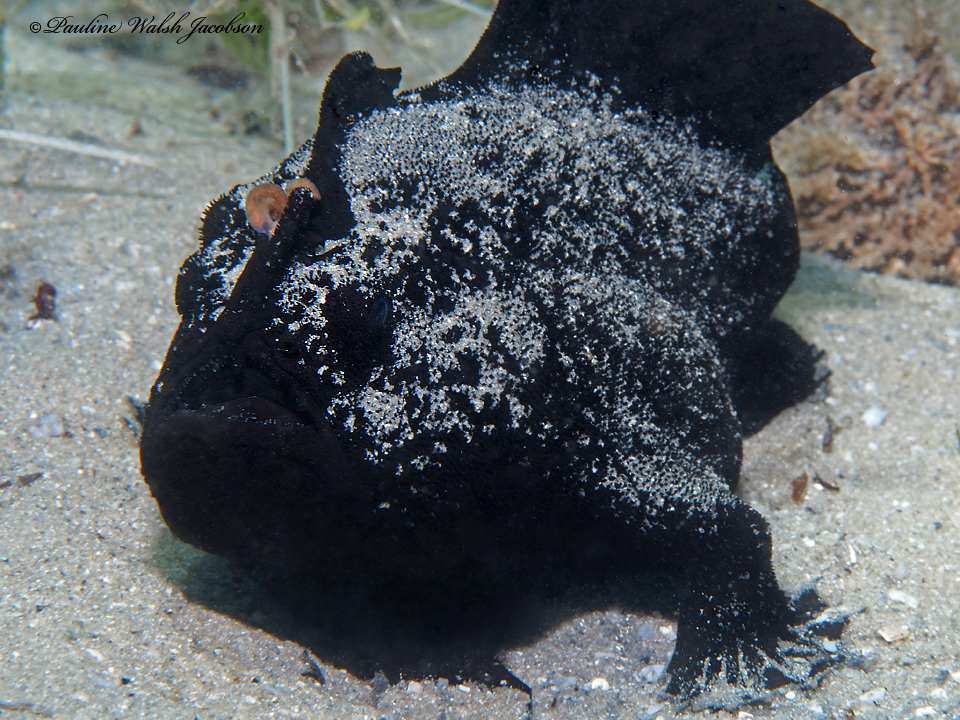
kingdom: Animalia
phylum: Chordata
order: Lophiiformes
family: Antennariidae
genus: Antennarius
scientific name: Antennarius striatus
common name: Striated frogfish
